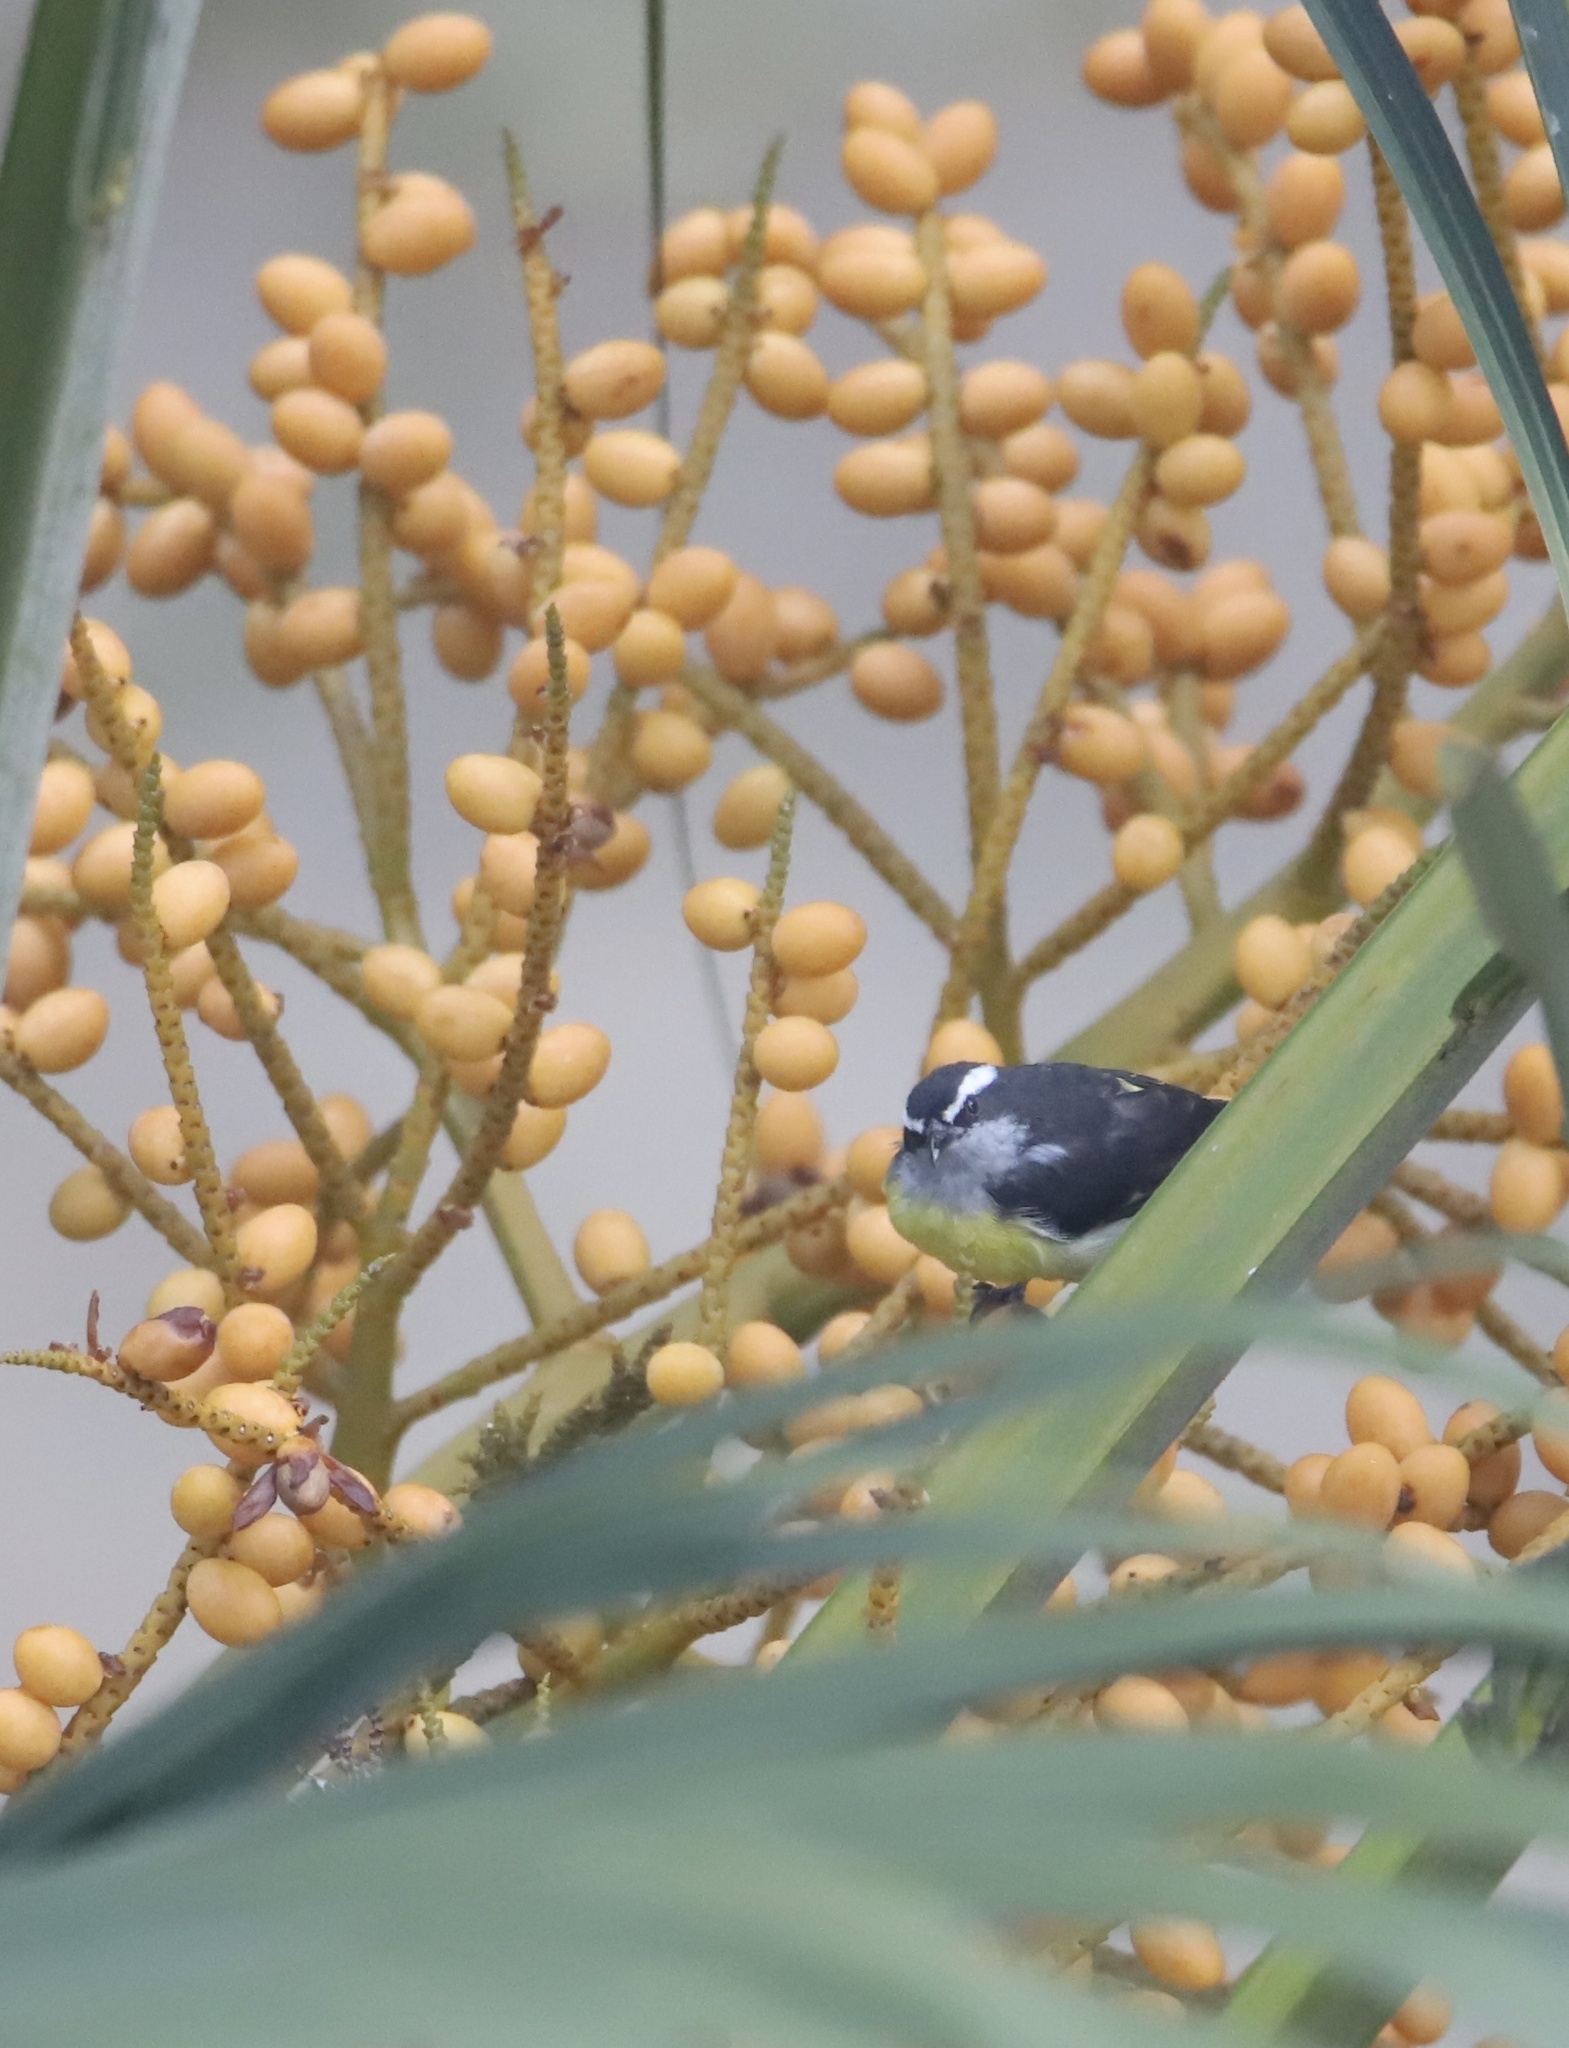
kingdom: Animalia
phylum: Chordata
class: Aves
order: Passeriformes
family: Thraupidae
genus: Coereba
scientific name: Coereba flaveola
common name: Bananaquit
